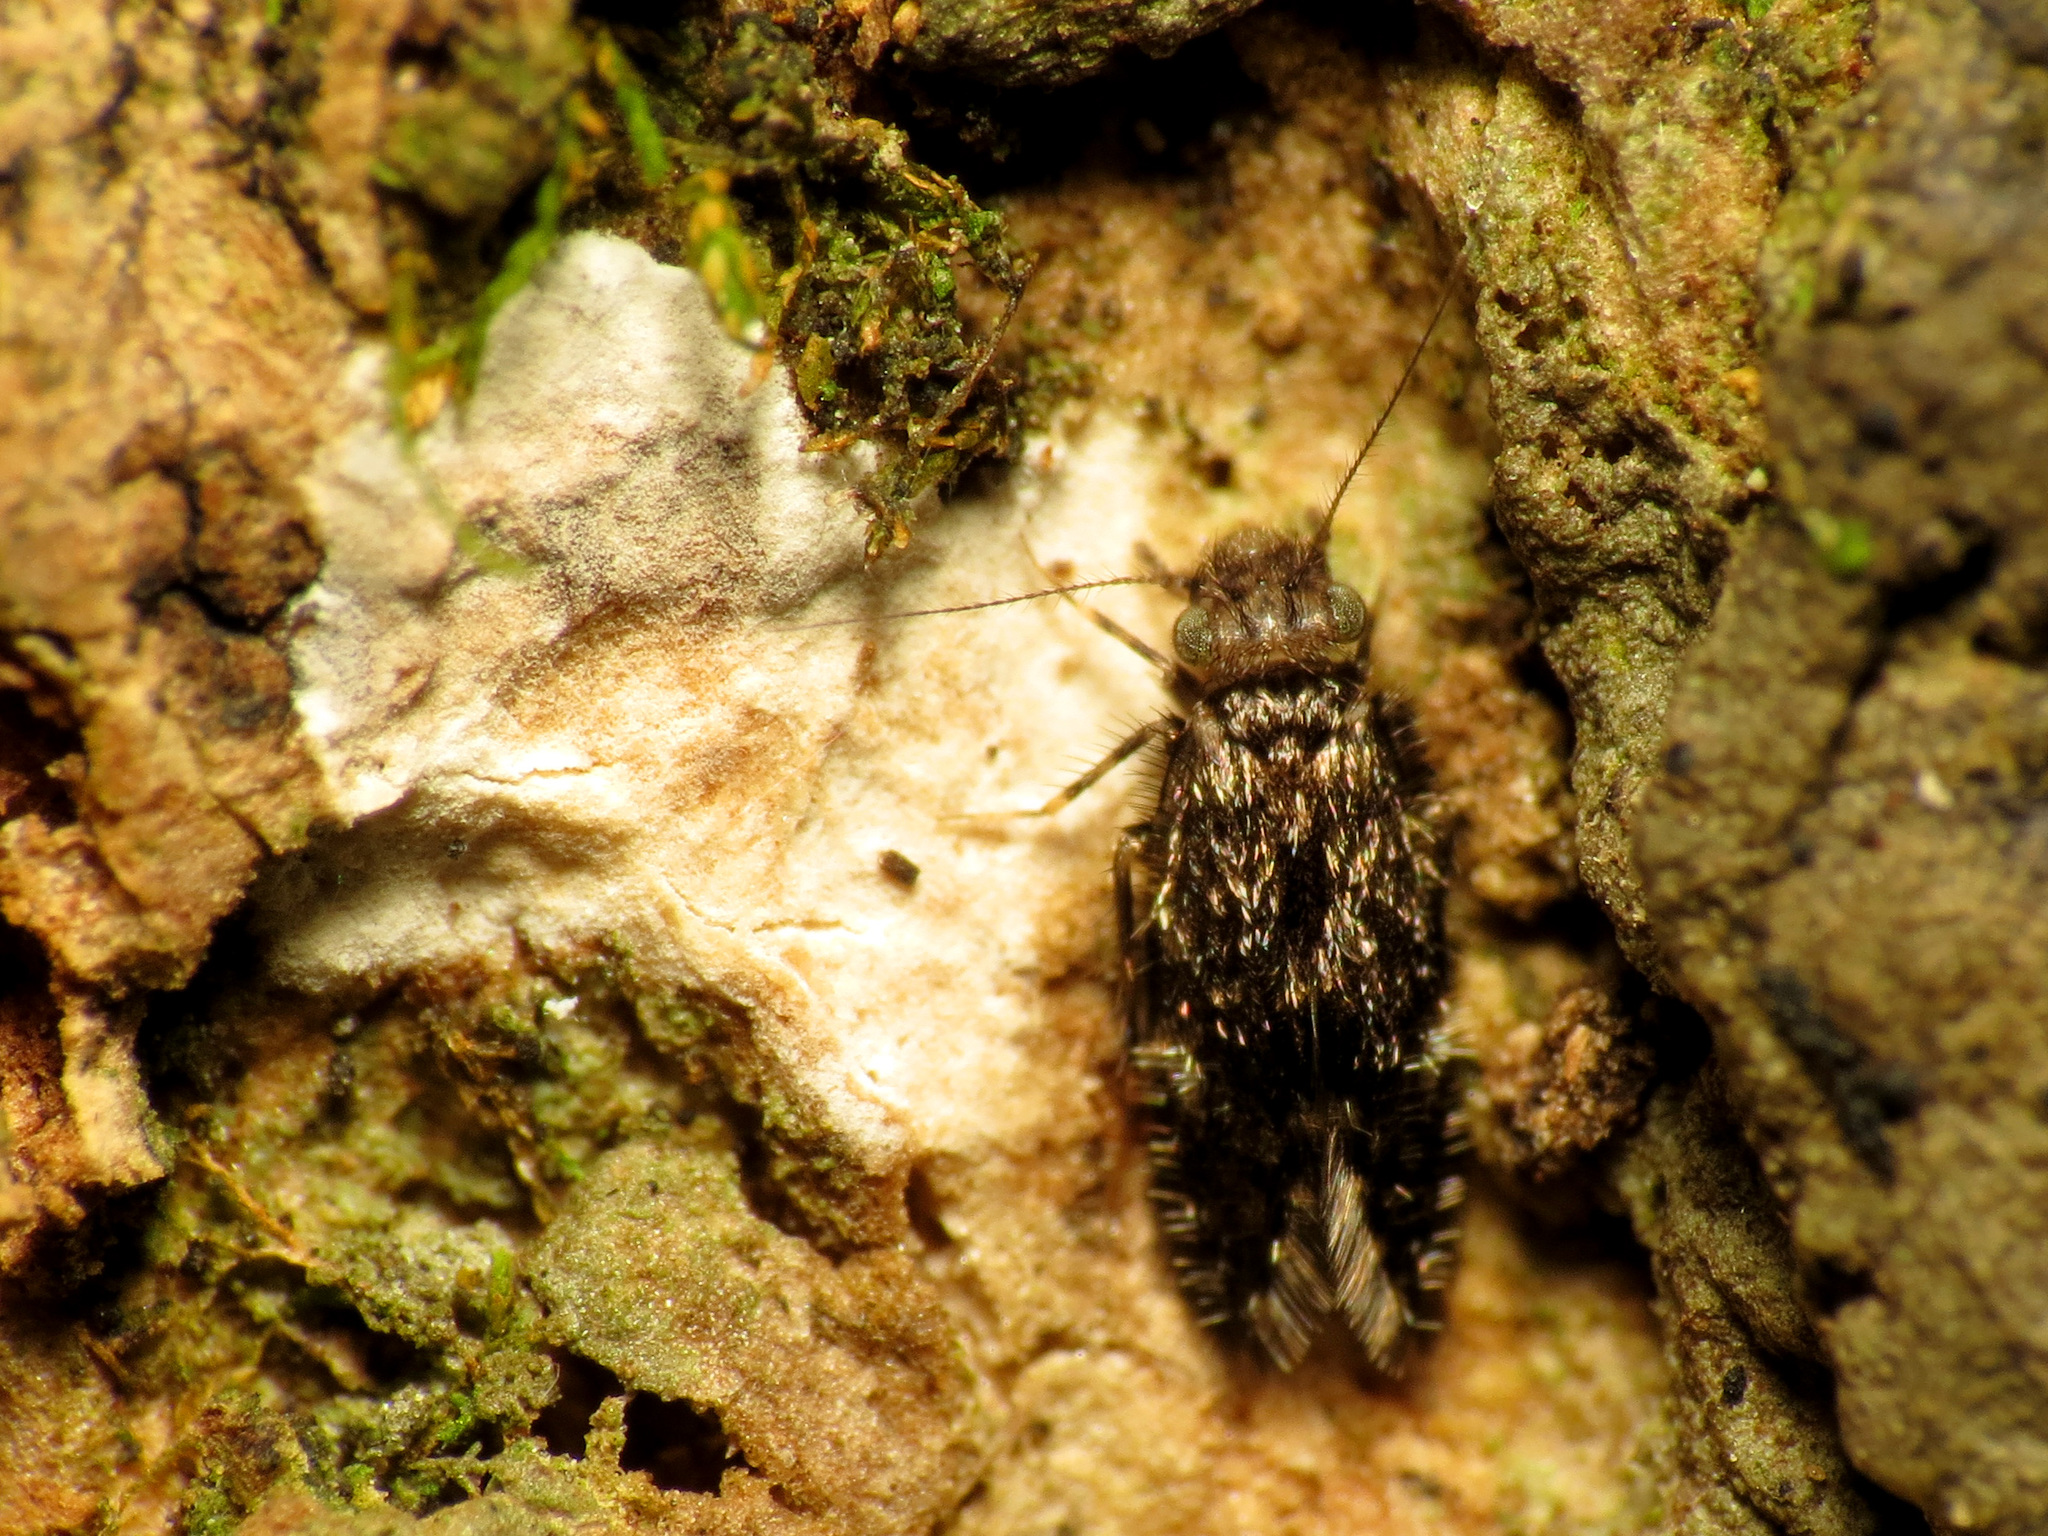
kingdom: Animalia
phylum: Arthropoda
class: Insecta
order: Psocodea
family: Lepidopsocidae
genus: Echmepteryx
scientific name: Echmepteryx hageni
